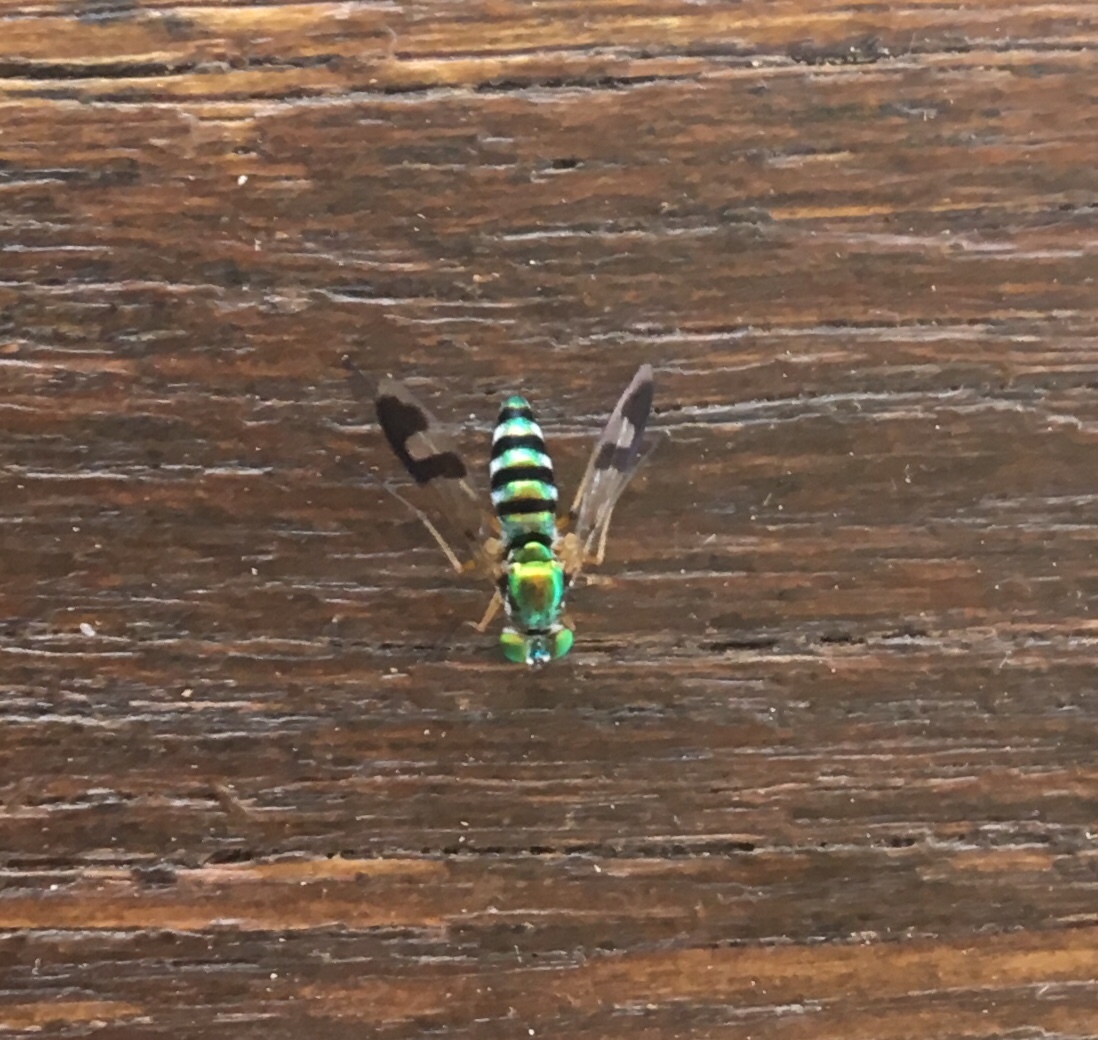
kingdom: Animalia
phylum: Arthropoda
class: Insecta
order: Diptera
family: Dolichopodidae
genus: Austrosciapus
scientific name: Austrosciapus
